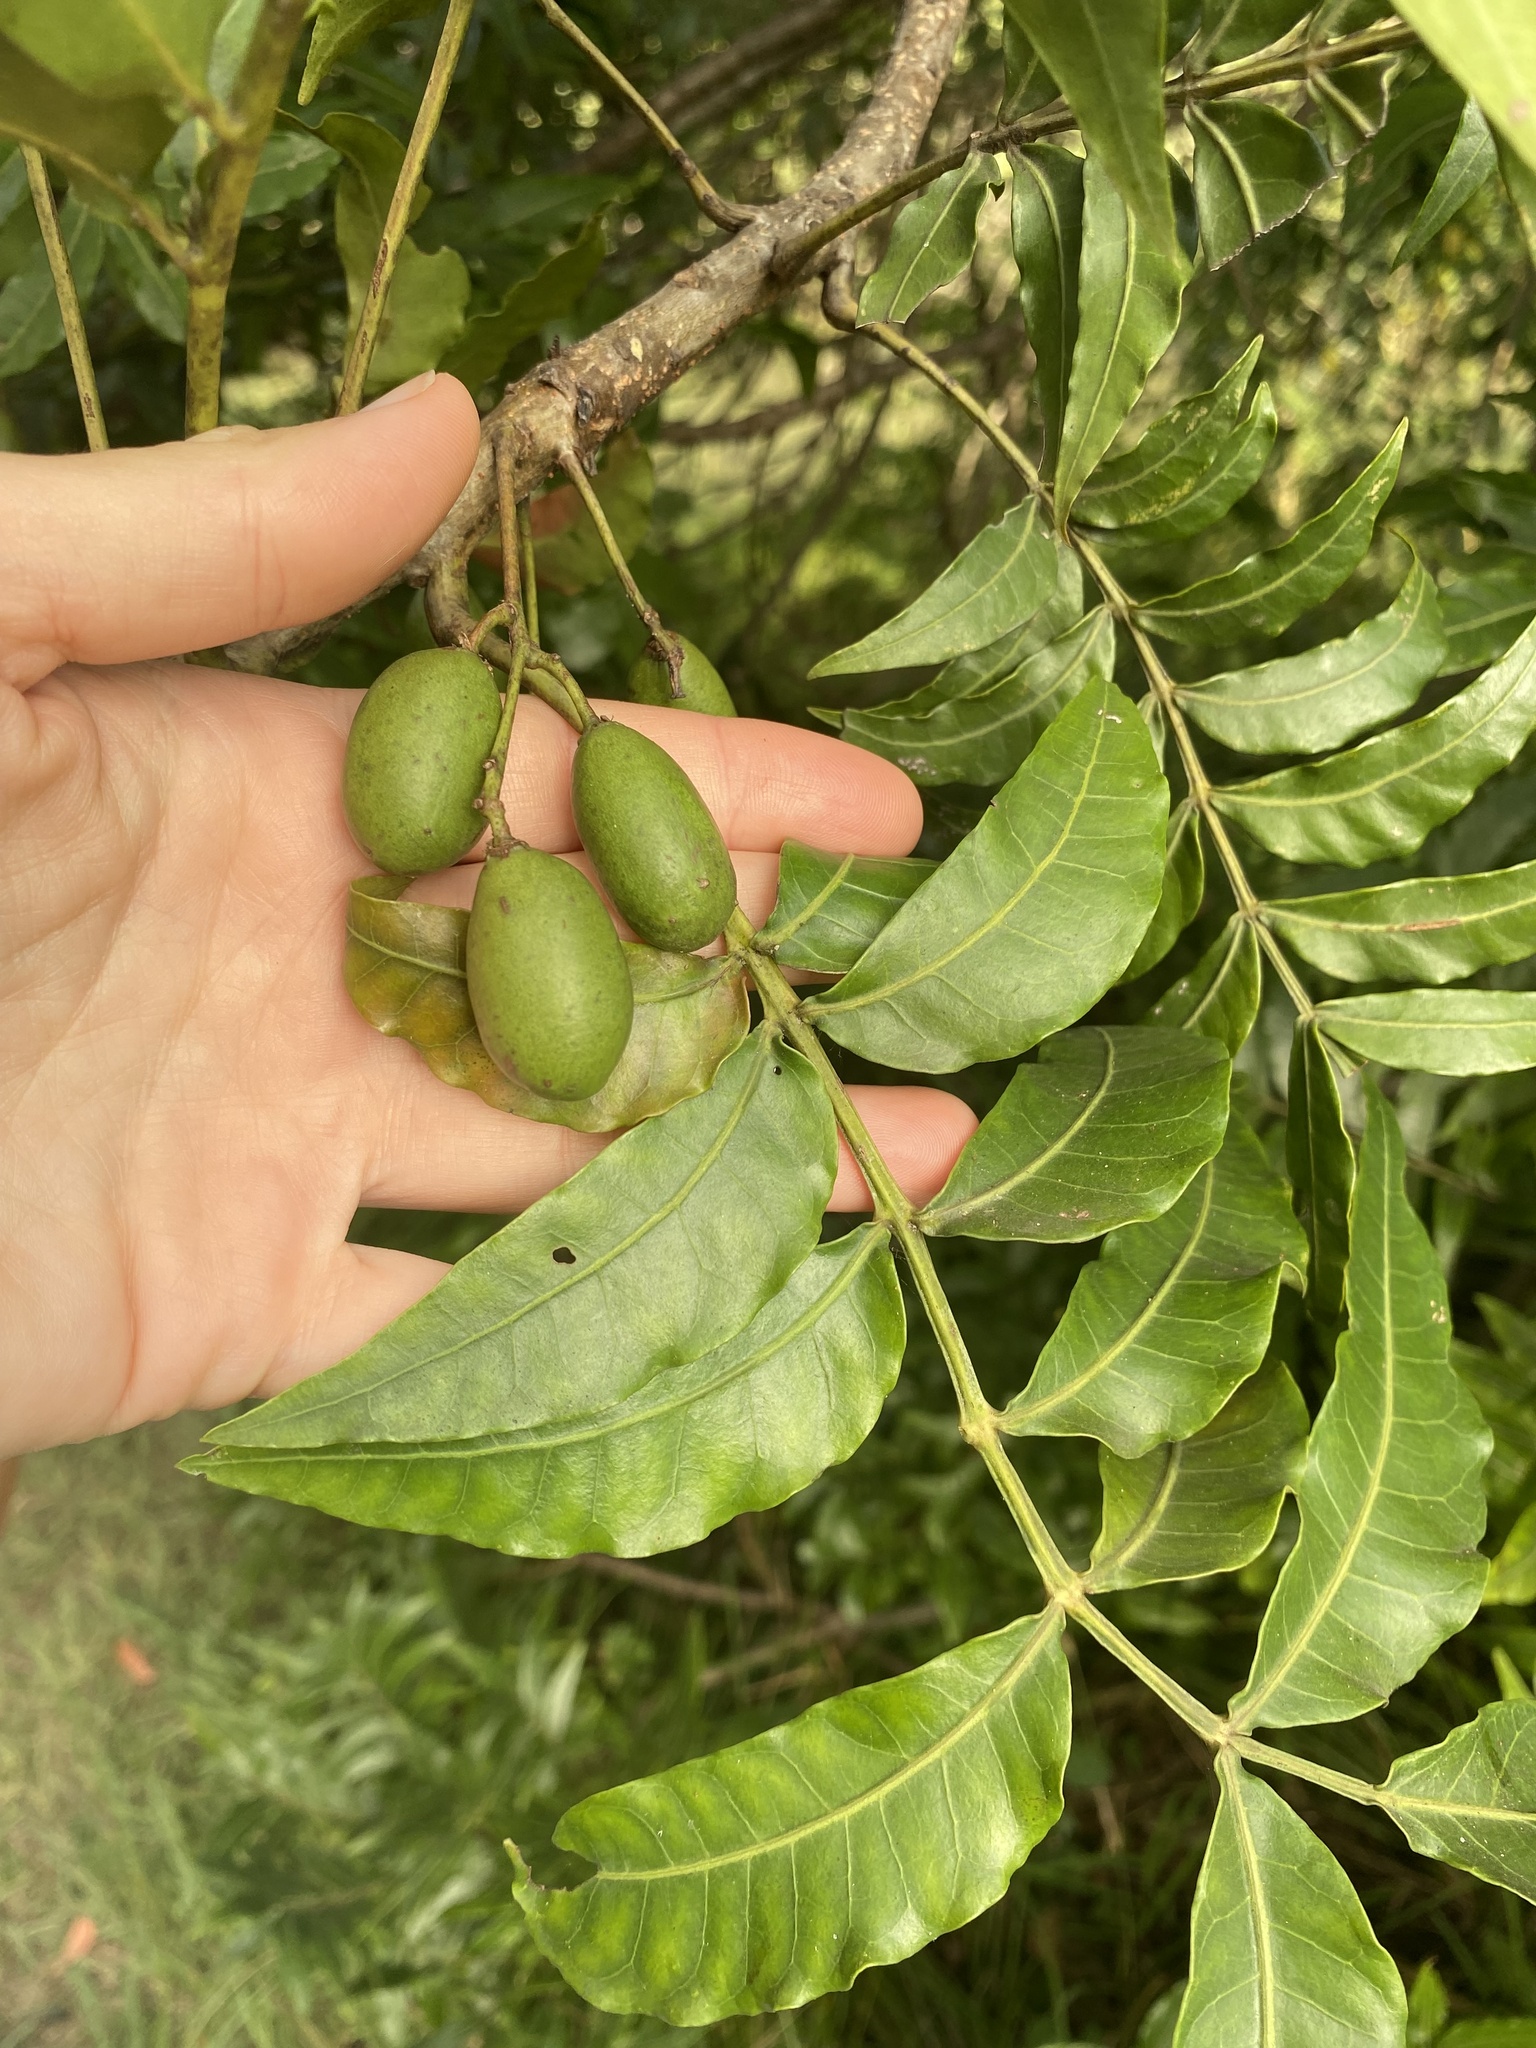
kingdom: Plantae
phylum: Tracheophyta
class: Magnoliopsida
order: Sapindales
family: Anacardiaceae
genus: Harpephyllum
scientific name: Harpephyllum caffrum
